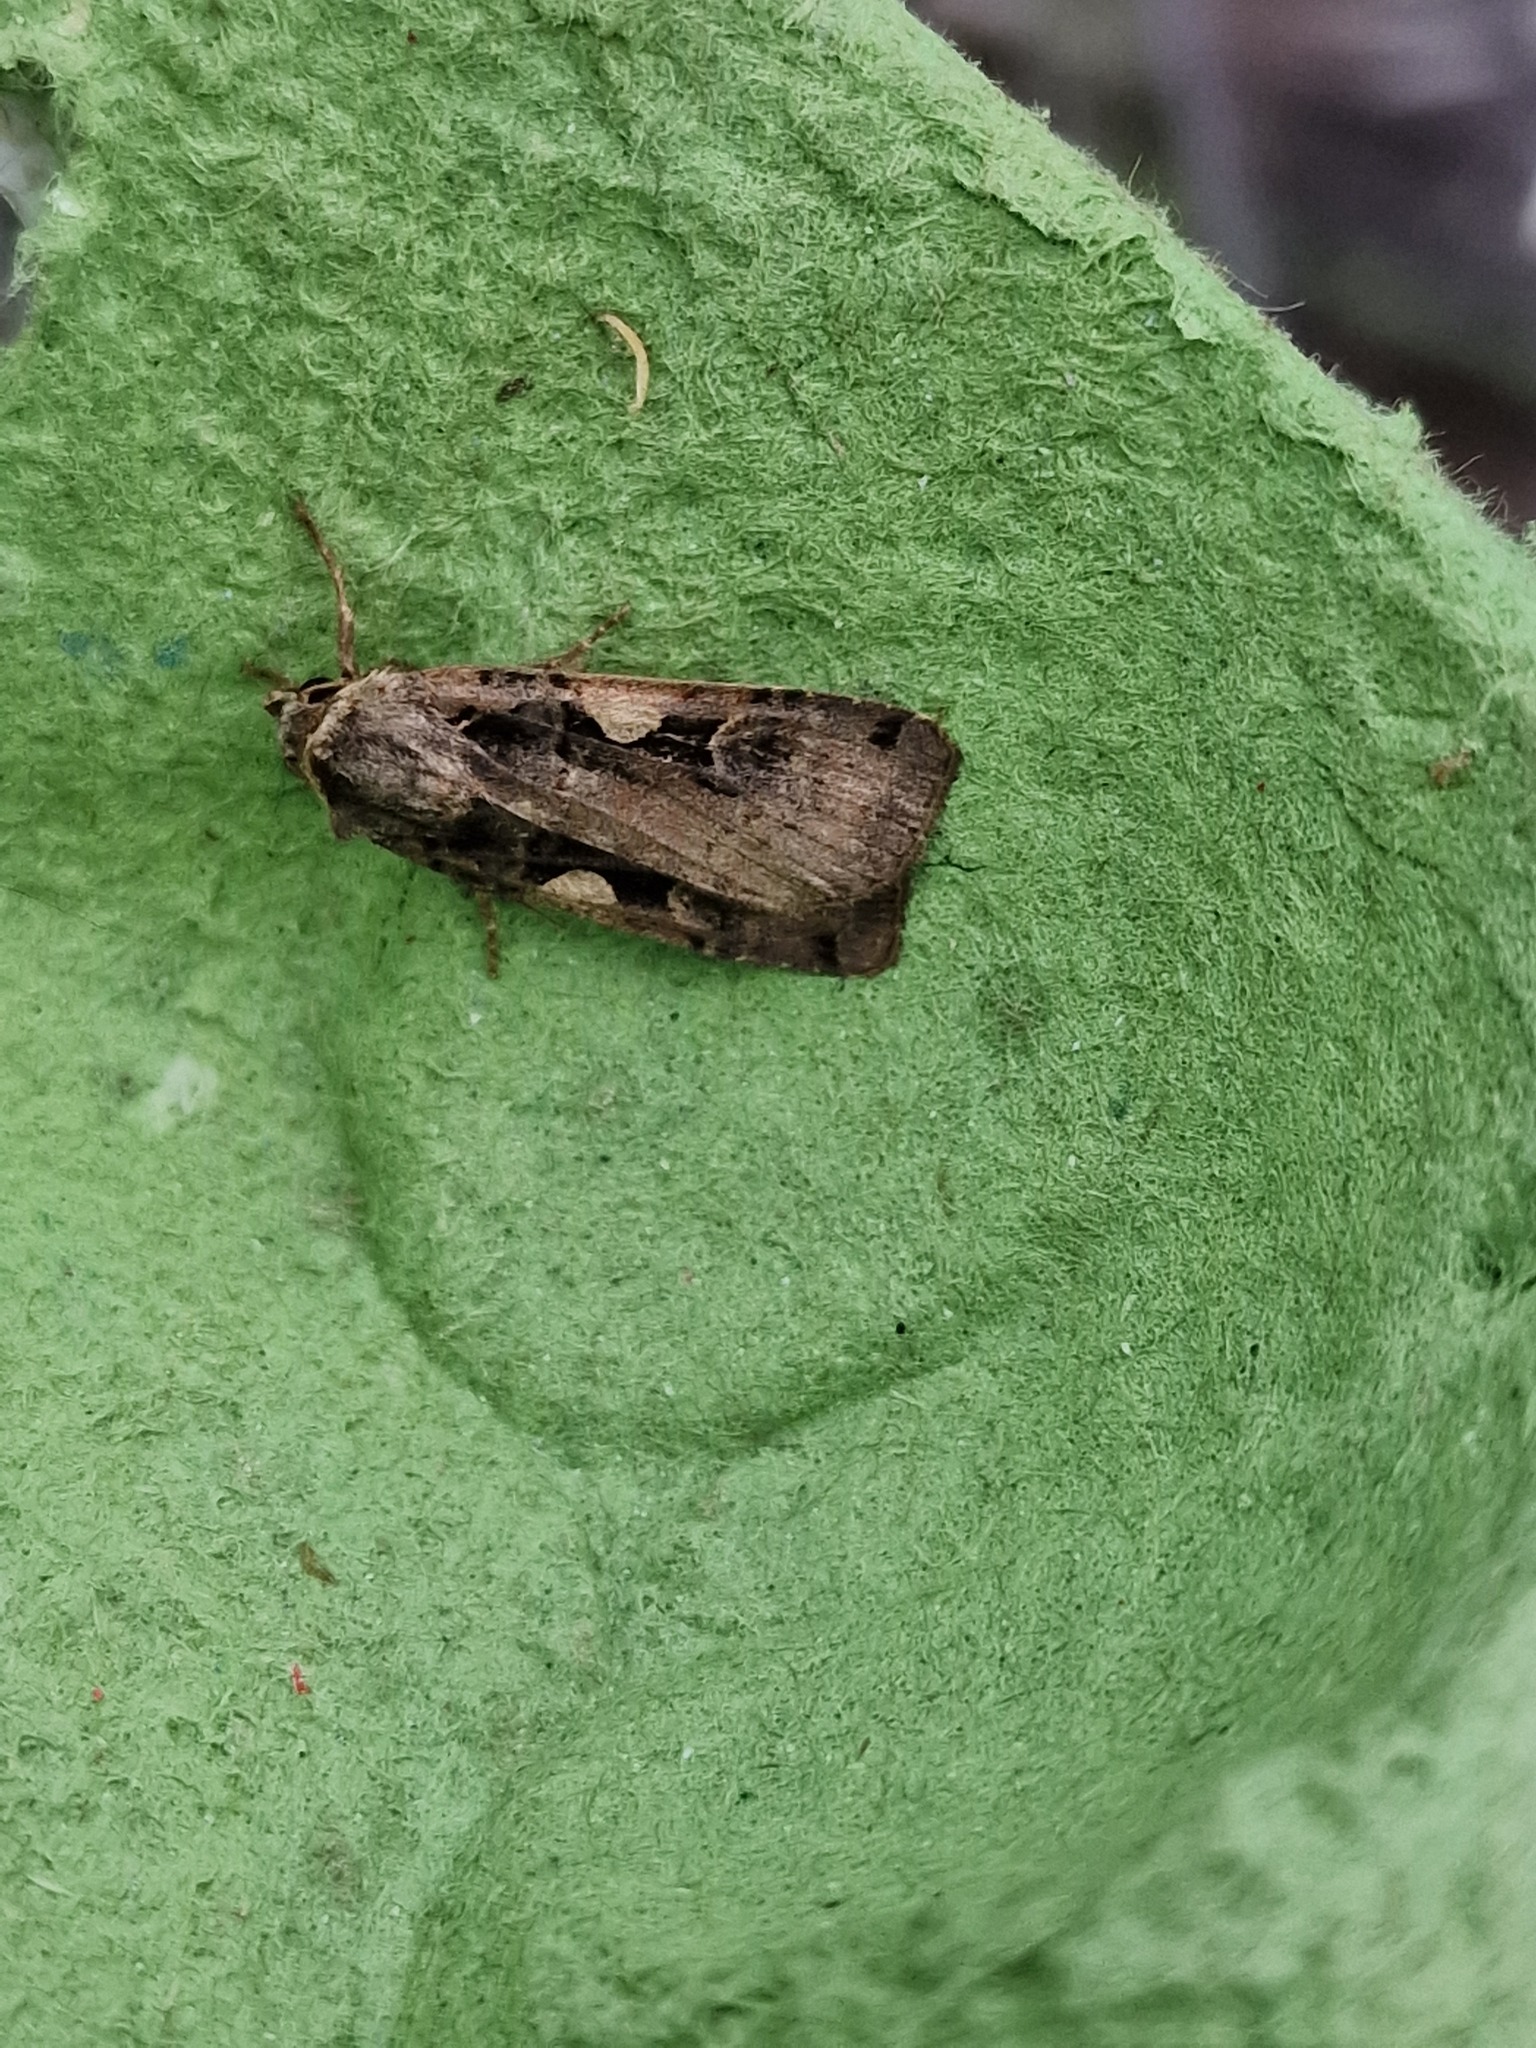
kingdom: Animalia
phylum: Arthropoda
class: Insecta
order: Lepidoptera
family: Noctuidae
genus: Xestia
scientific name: Xestia c-nigrum
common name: Setaceous hebrew character
